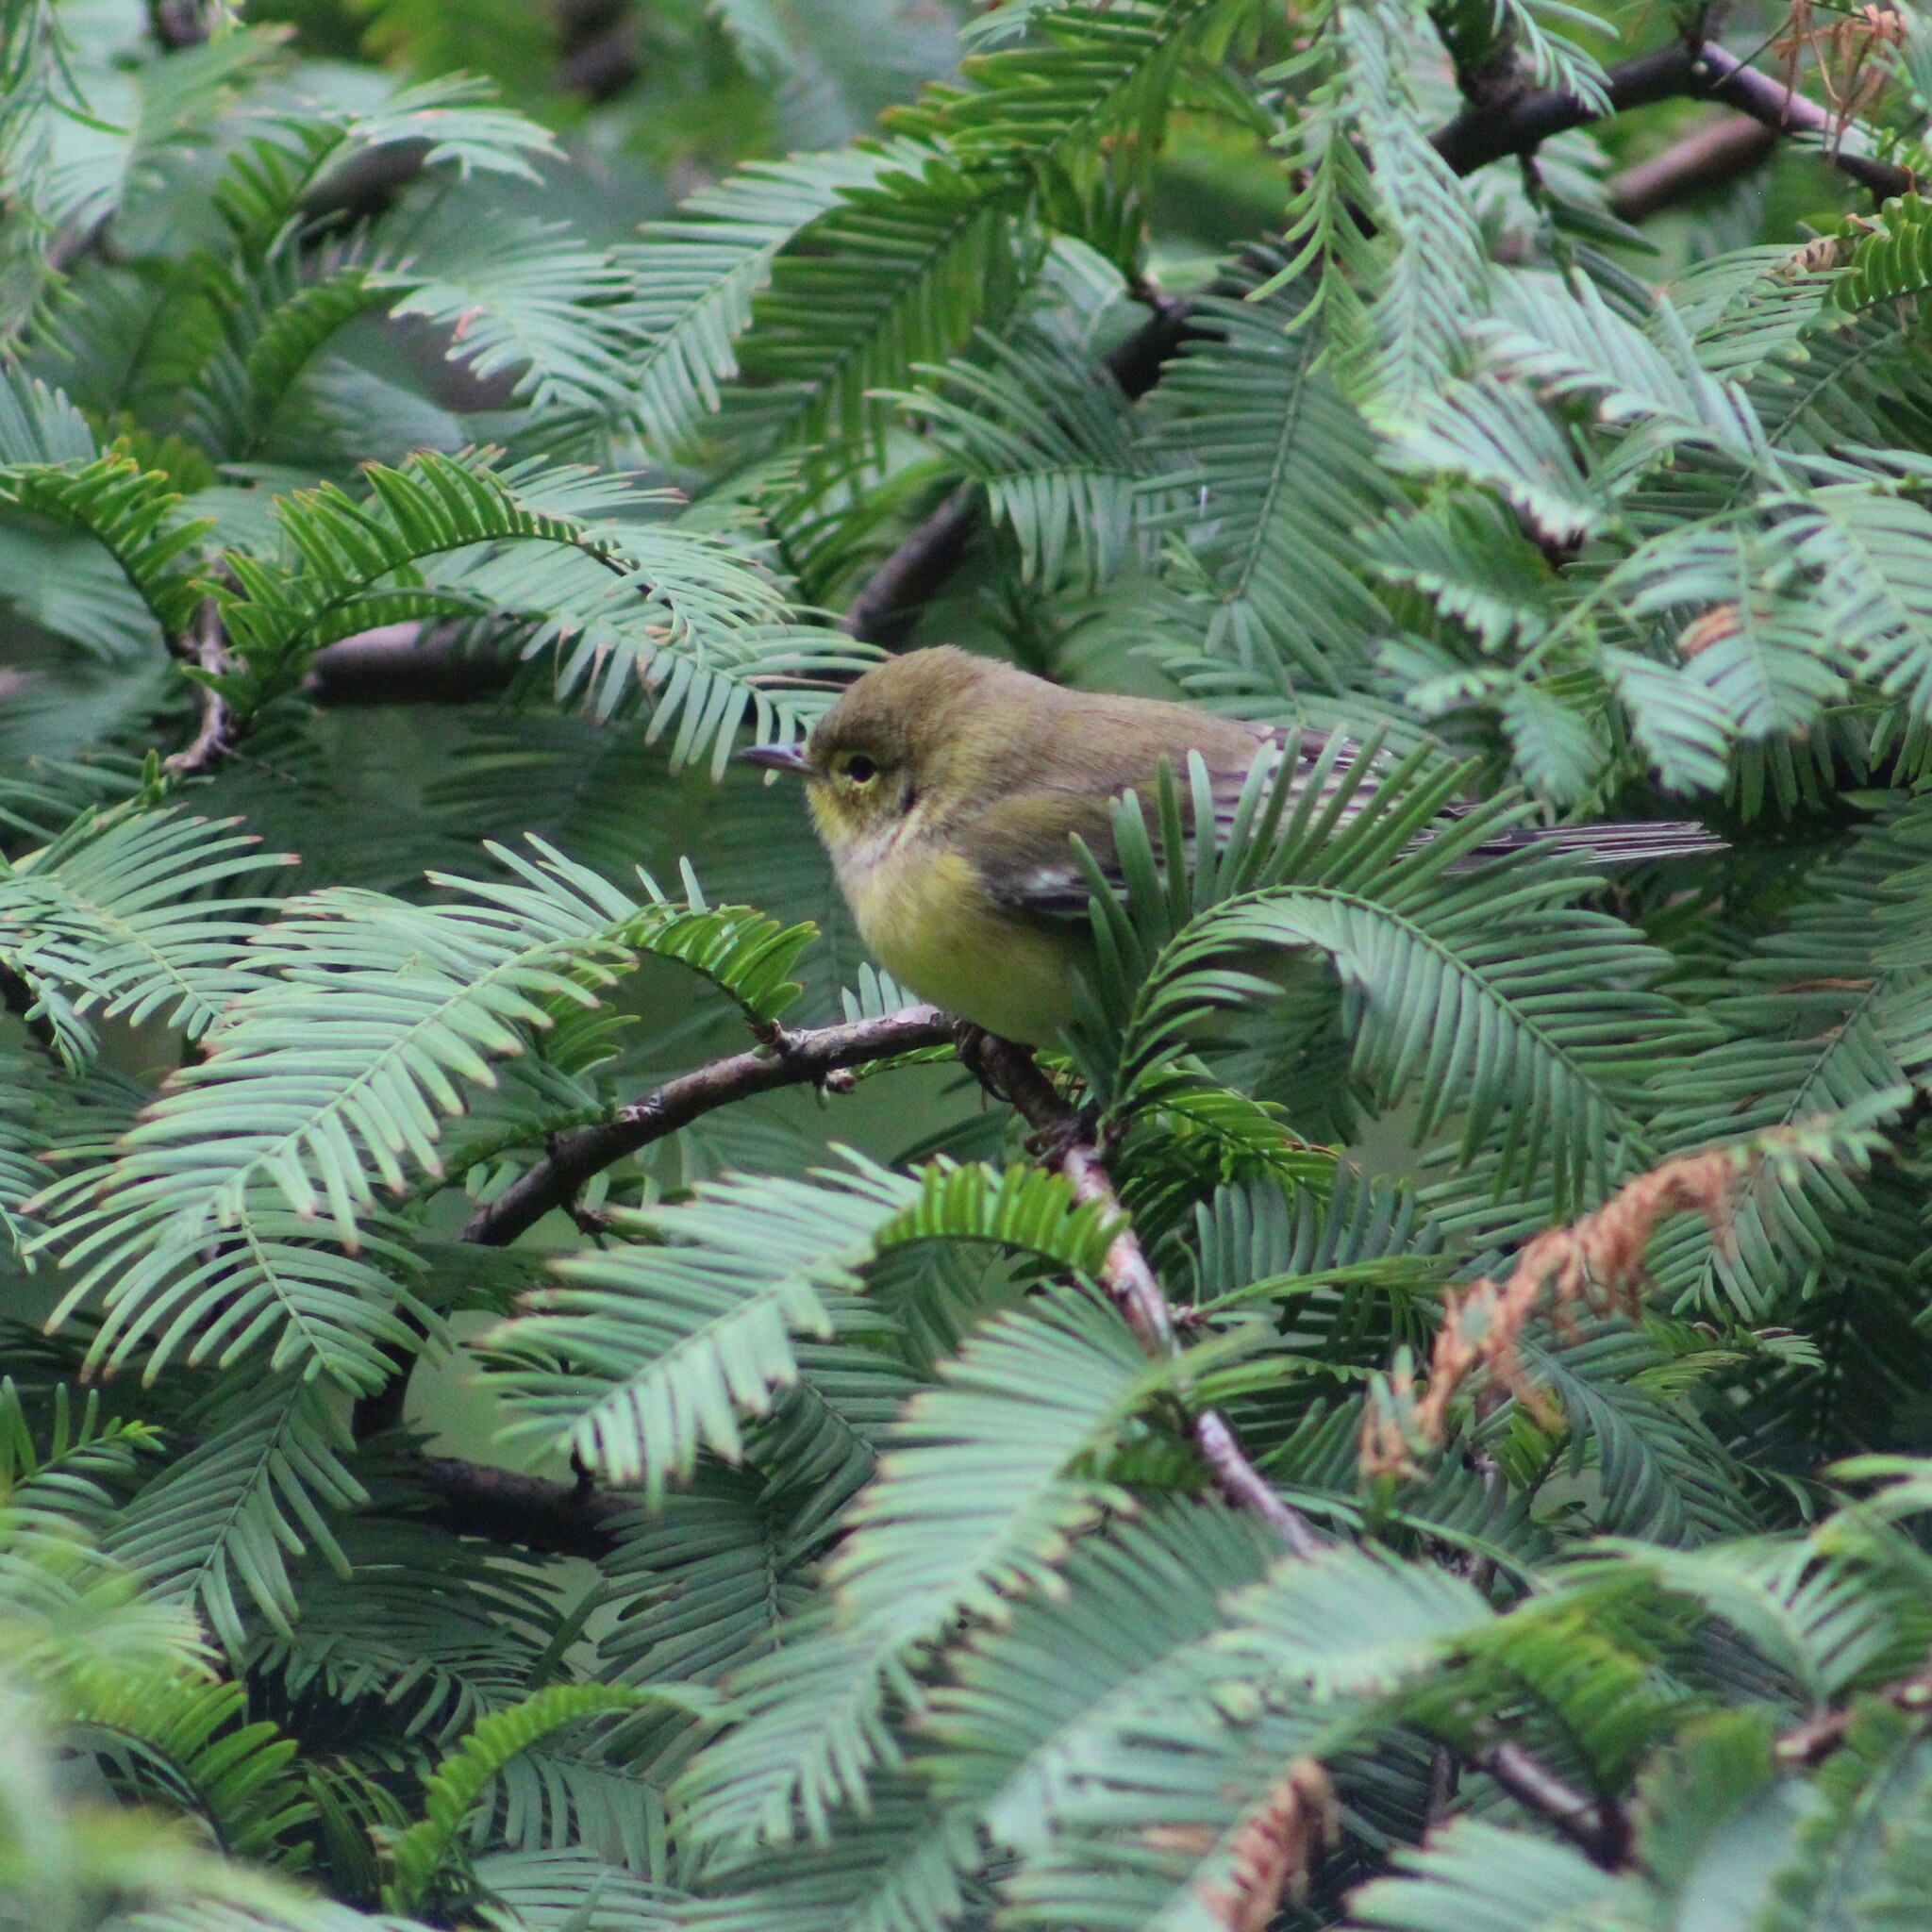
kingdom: Animalia
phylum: Chordata
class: Aves
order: Passeriformes
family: Parulidae
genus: Setophaga
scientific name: Setophaga pinus
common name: Pine warbler
